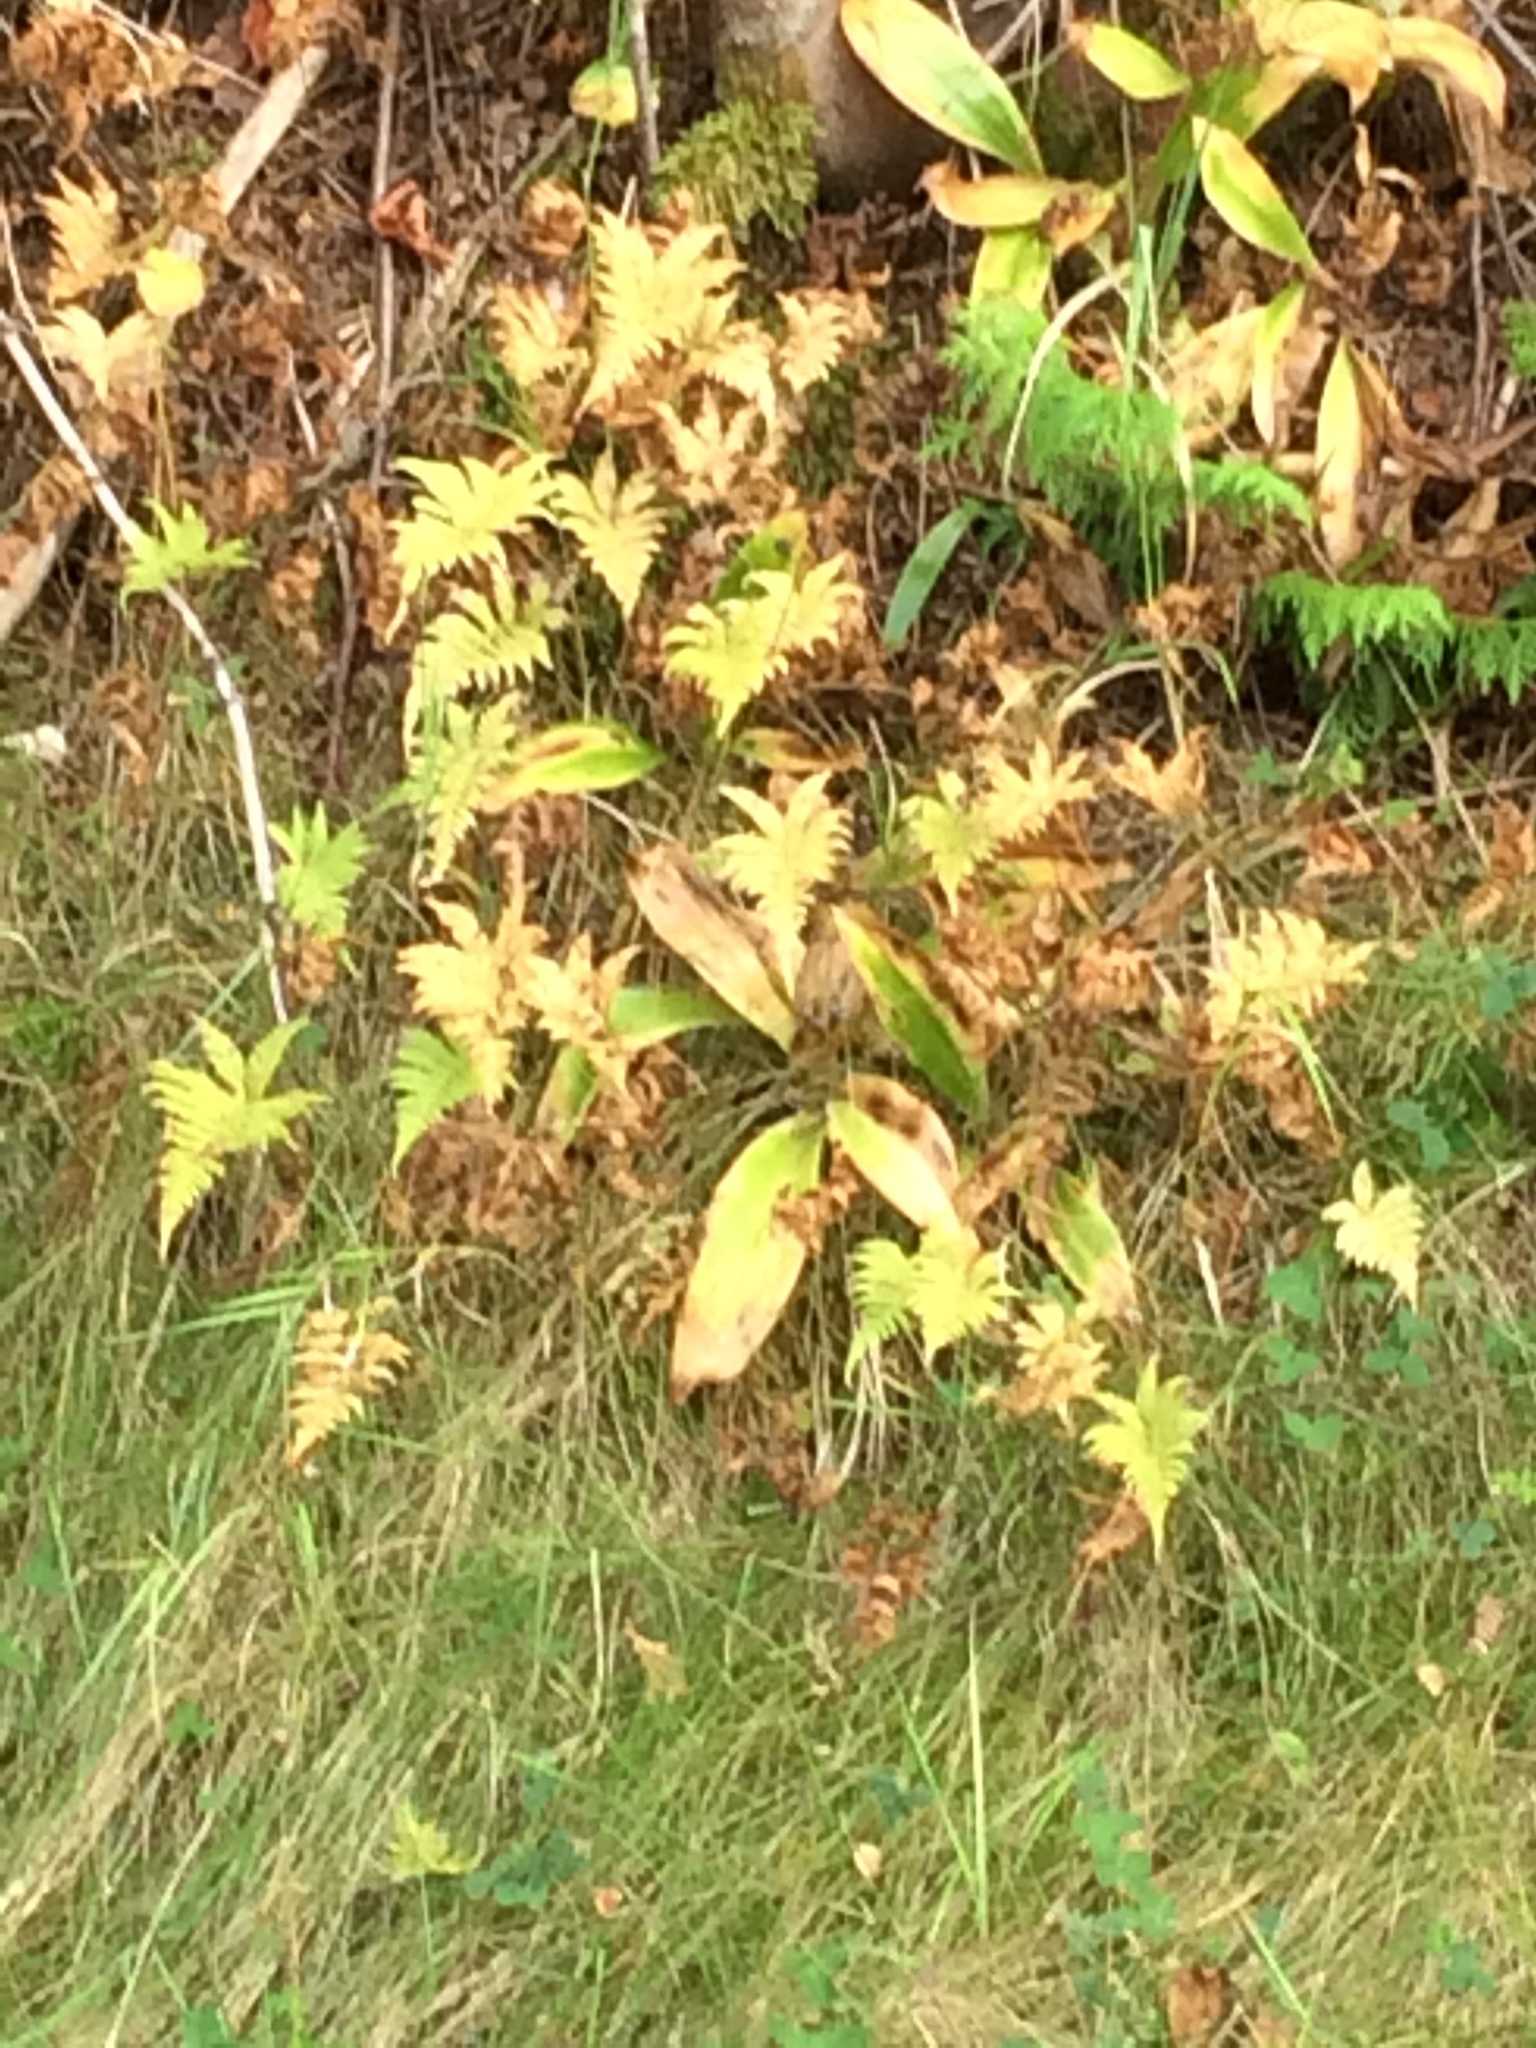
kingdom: Plantae
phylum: Tracheophyta
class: Polypodiopsida
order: Polypodiales
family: Thelypteridaceae
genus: Phegopteris
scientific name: Phegopteris connectilis
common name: Beech fern
